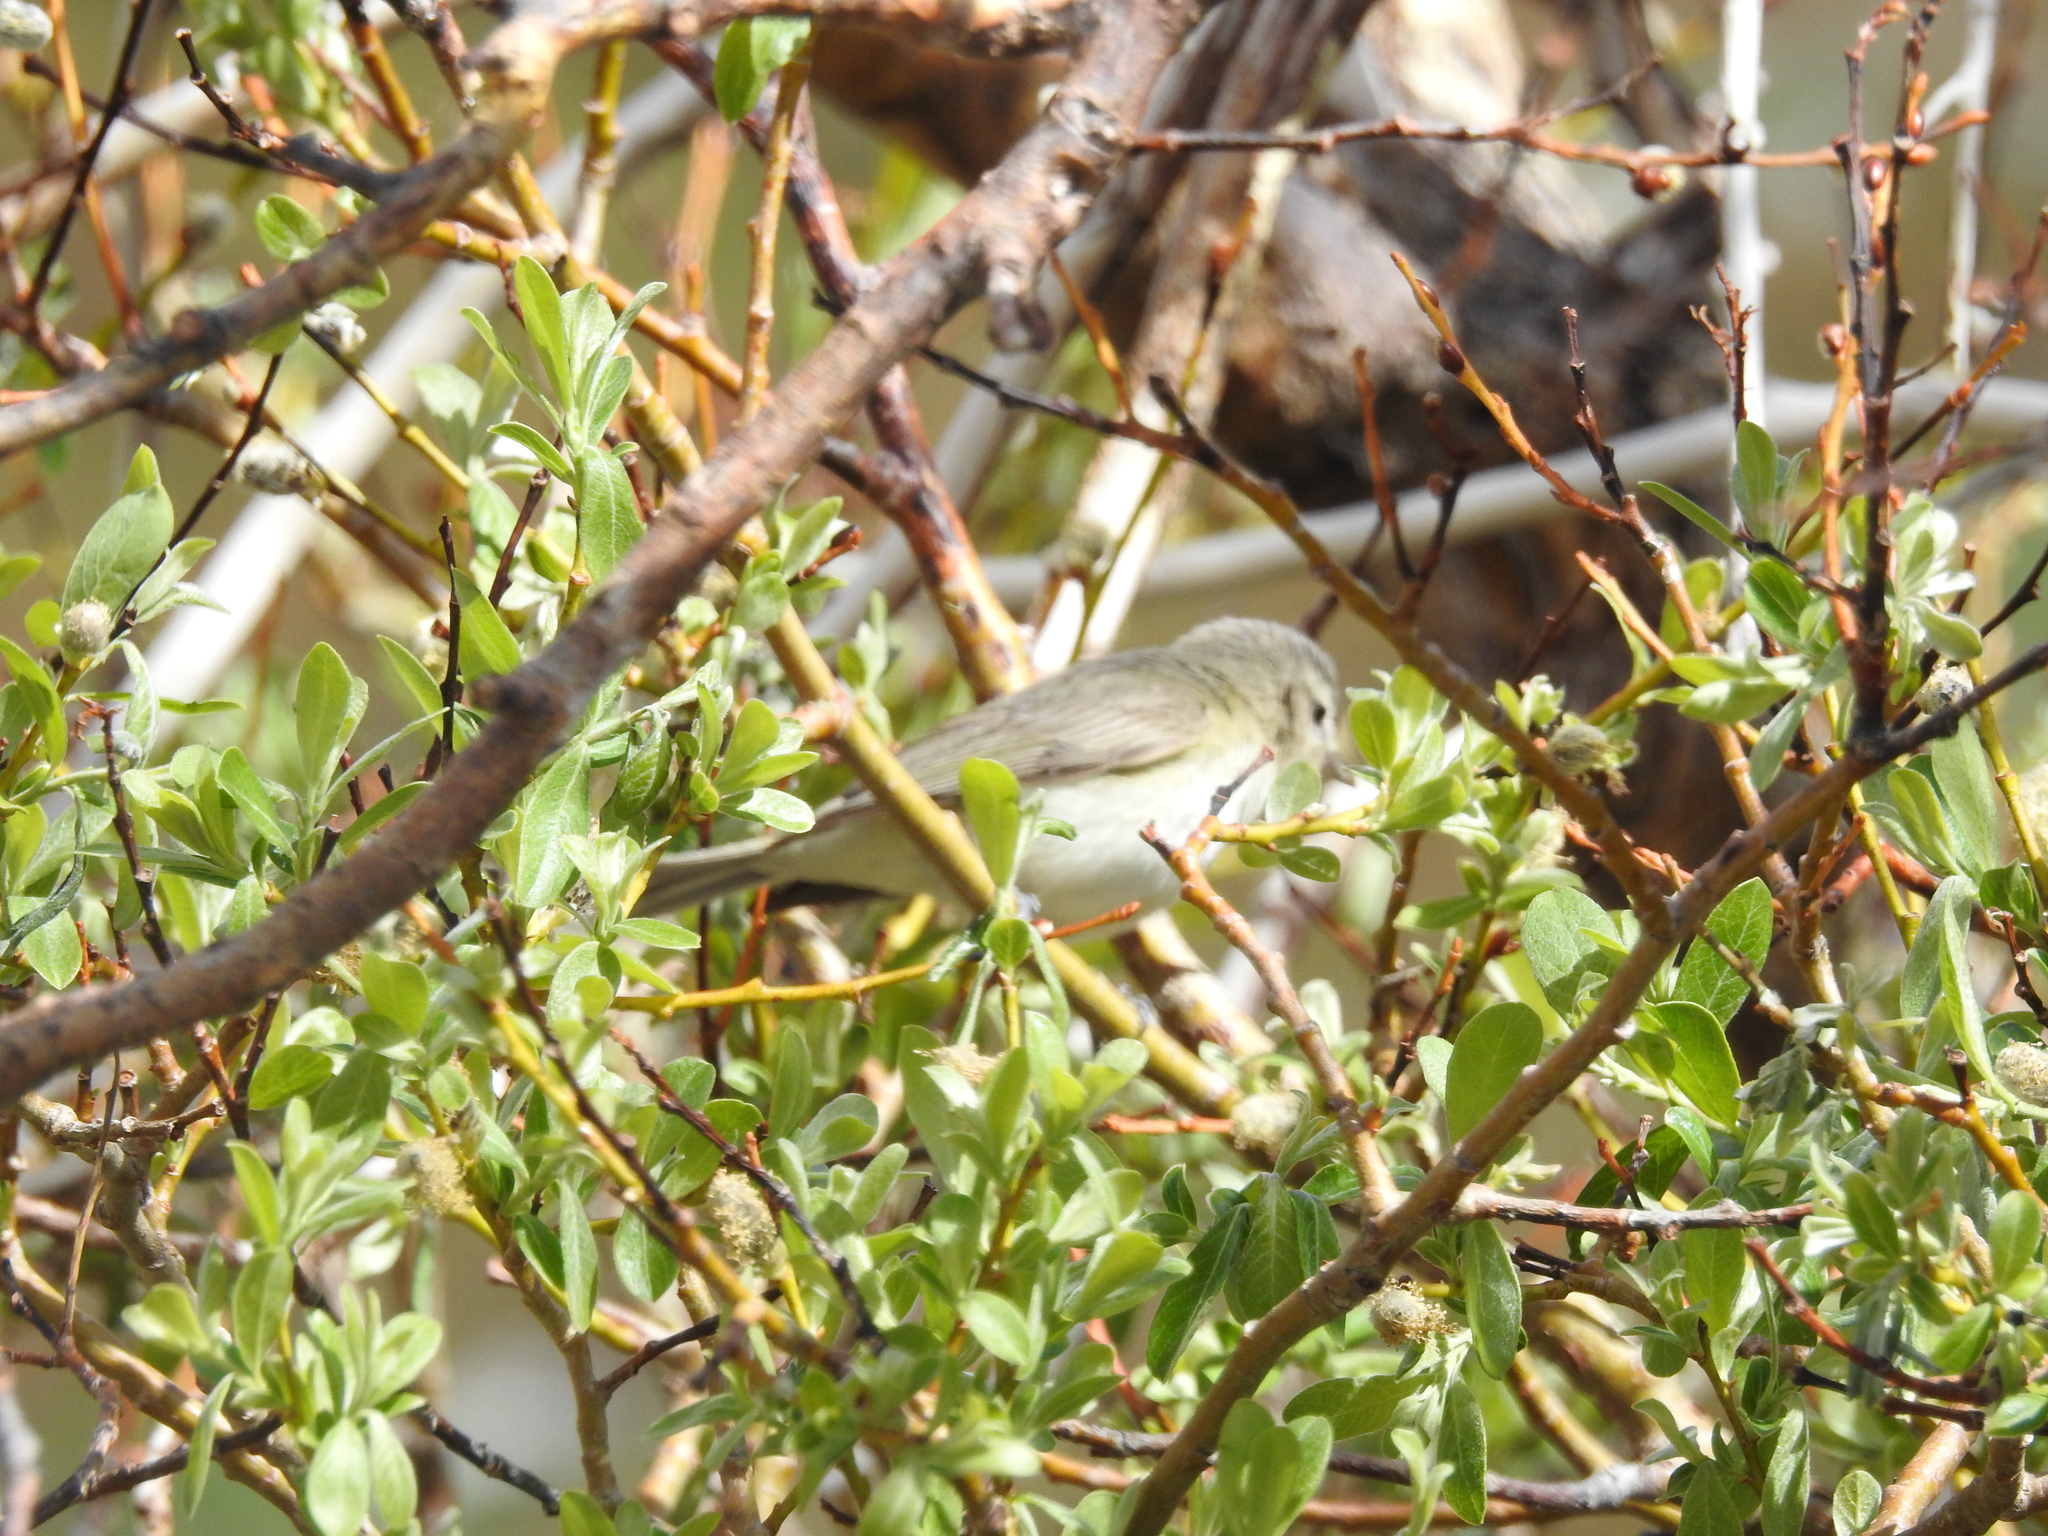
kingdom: Animalia
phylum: Chordata
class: Aves
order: Passeriformes
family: Vireonidae
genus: Vireo
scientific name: Vireo gilvus
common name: Warbling vireo
